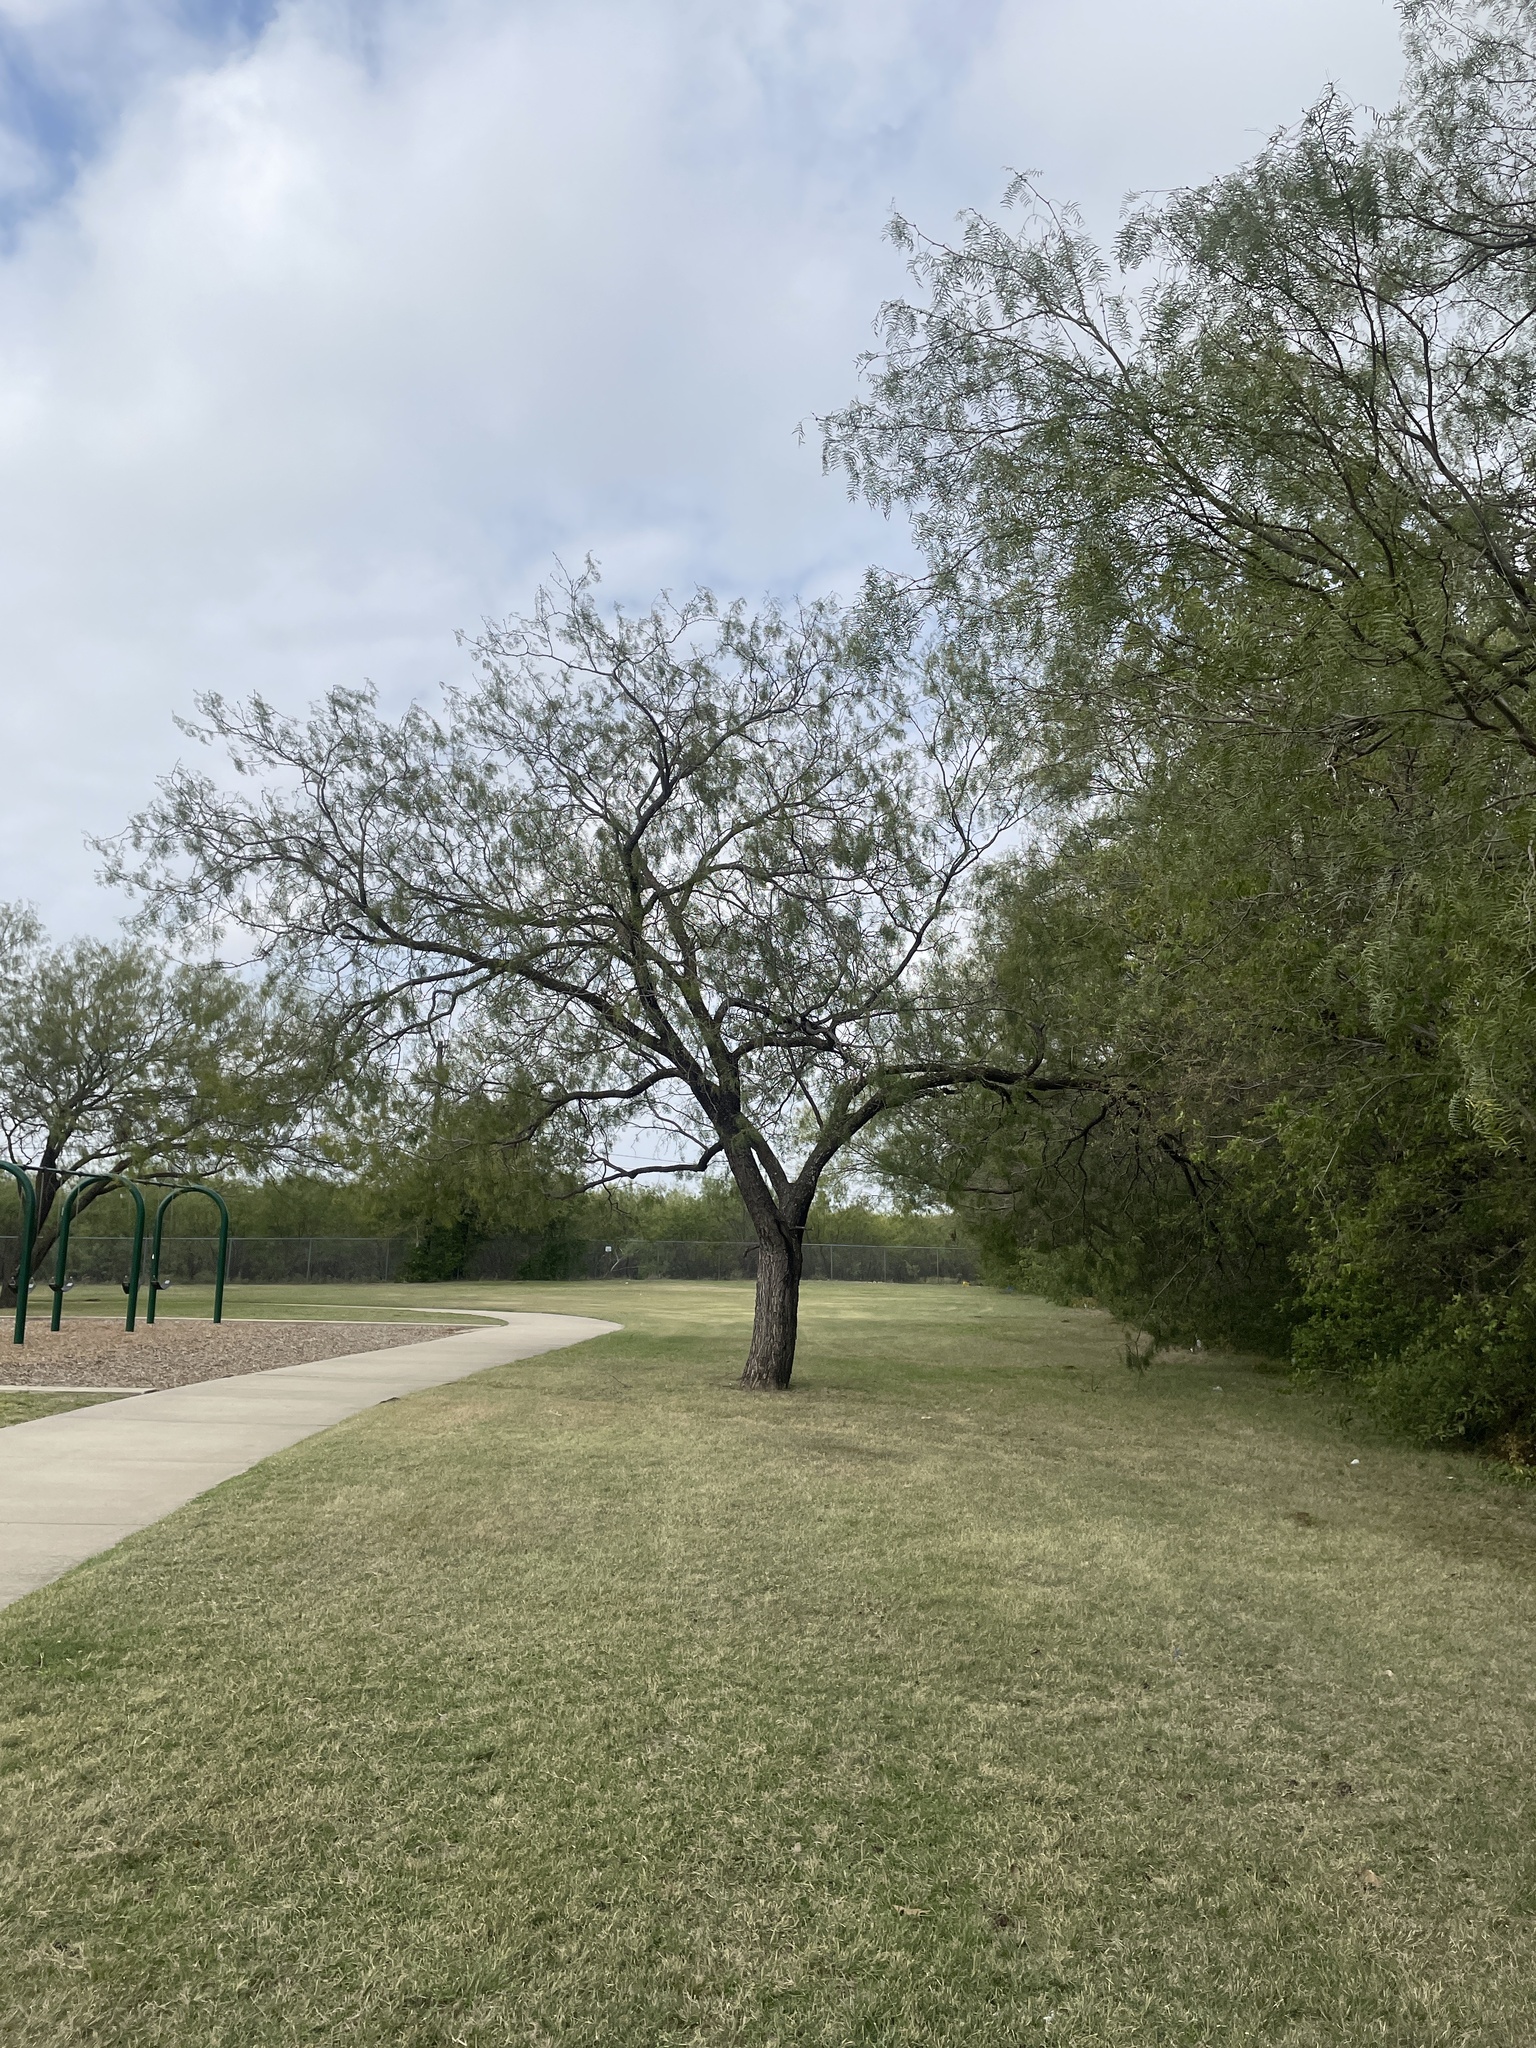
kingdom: Plantae
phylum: Tracheophyta
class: Magnoliopsida
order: Fabales
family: Fabaceae
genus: Prosopis
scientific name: Prosopis glandulosa
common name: Honey mesquite
